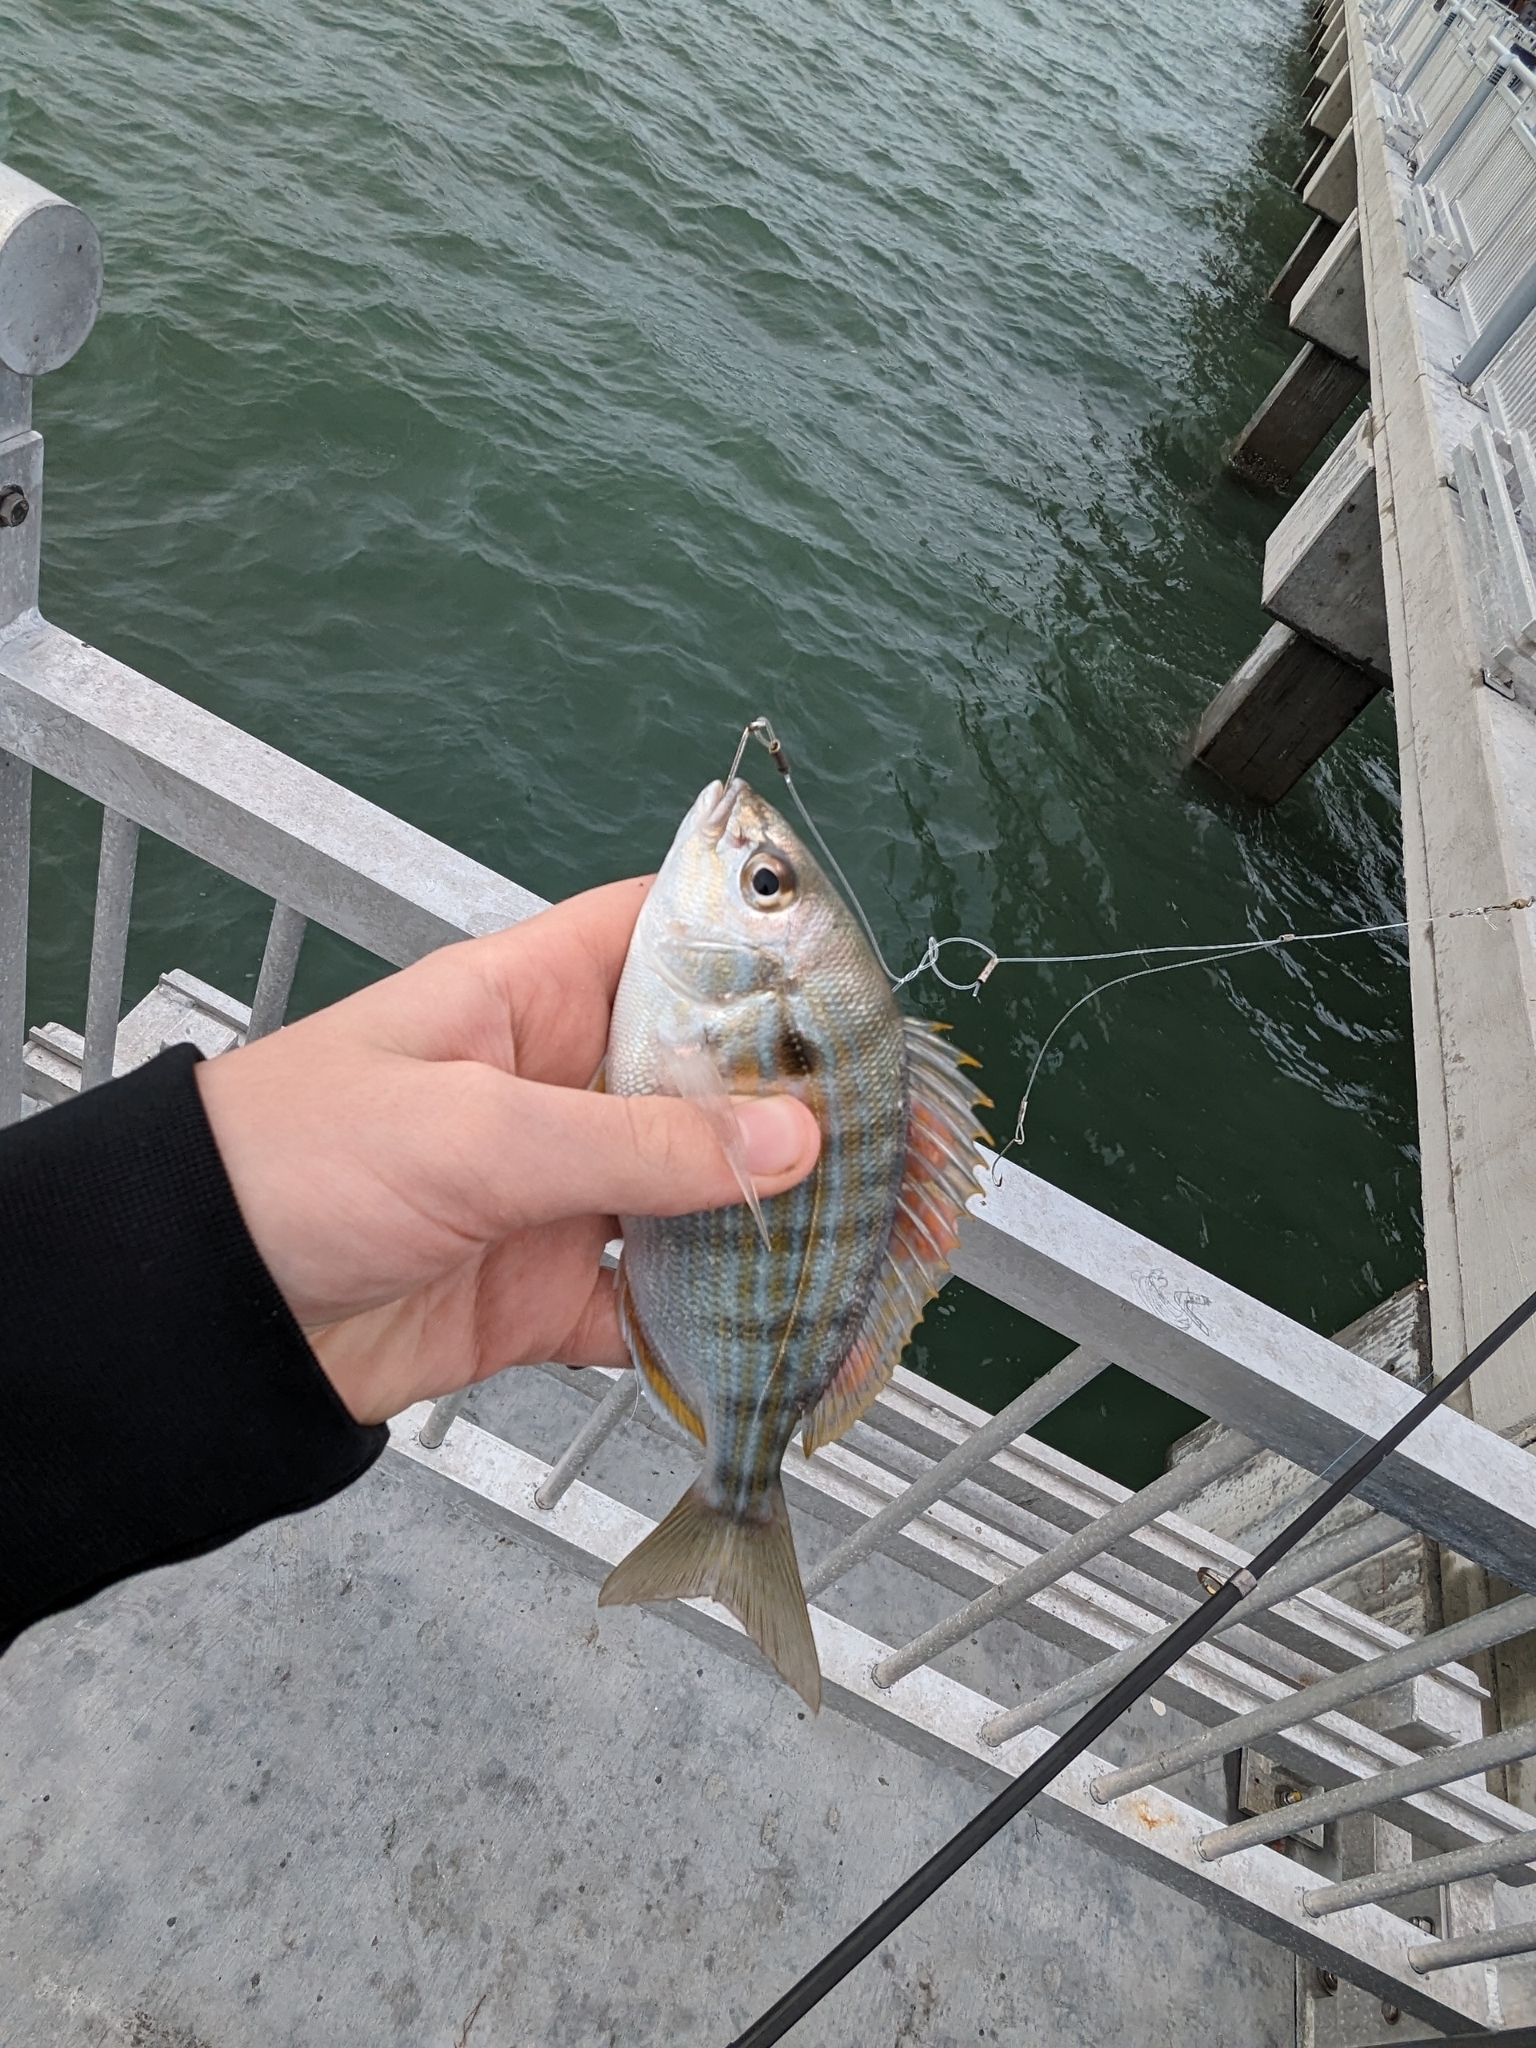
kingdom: Animalia
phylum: Chordata
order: Perciformes
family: Sparidae
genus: Lagodon
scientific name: Lagodon rhomboides
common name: Pinfish
